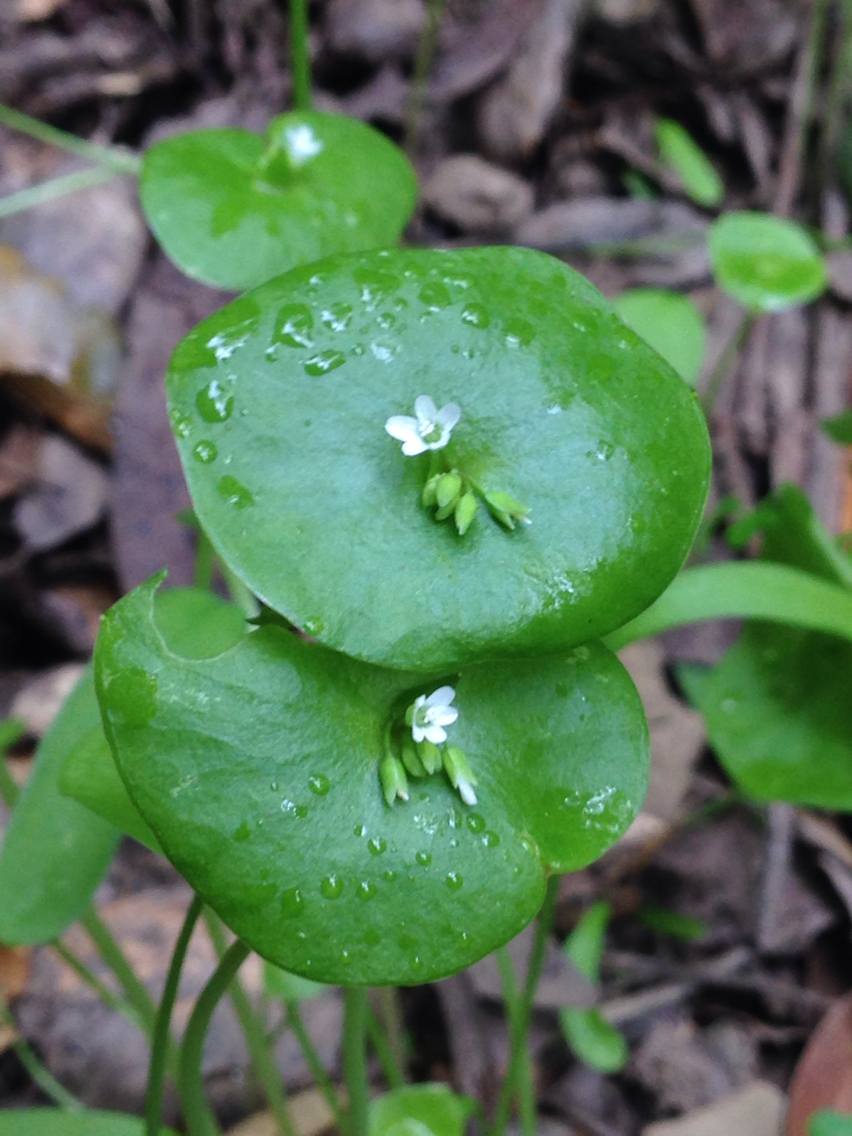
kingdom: Plantae
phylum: Tracheophyta
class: Magnoliopsida
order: Caryophyllales
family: Montiaceae
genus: Claytonia
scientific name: Claytonia perfoliata
